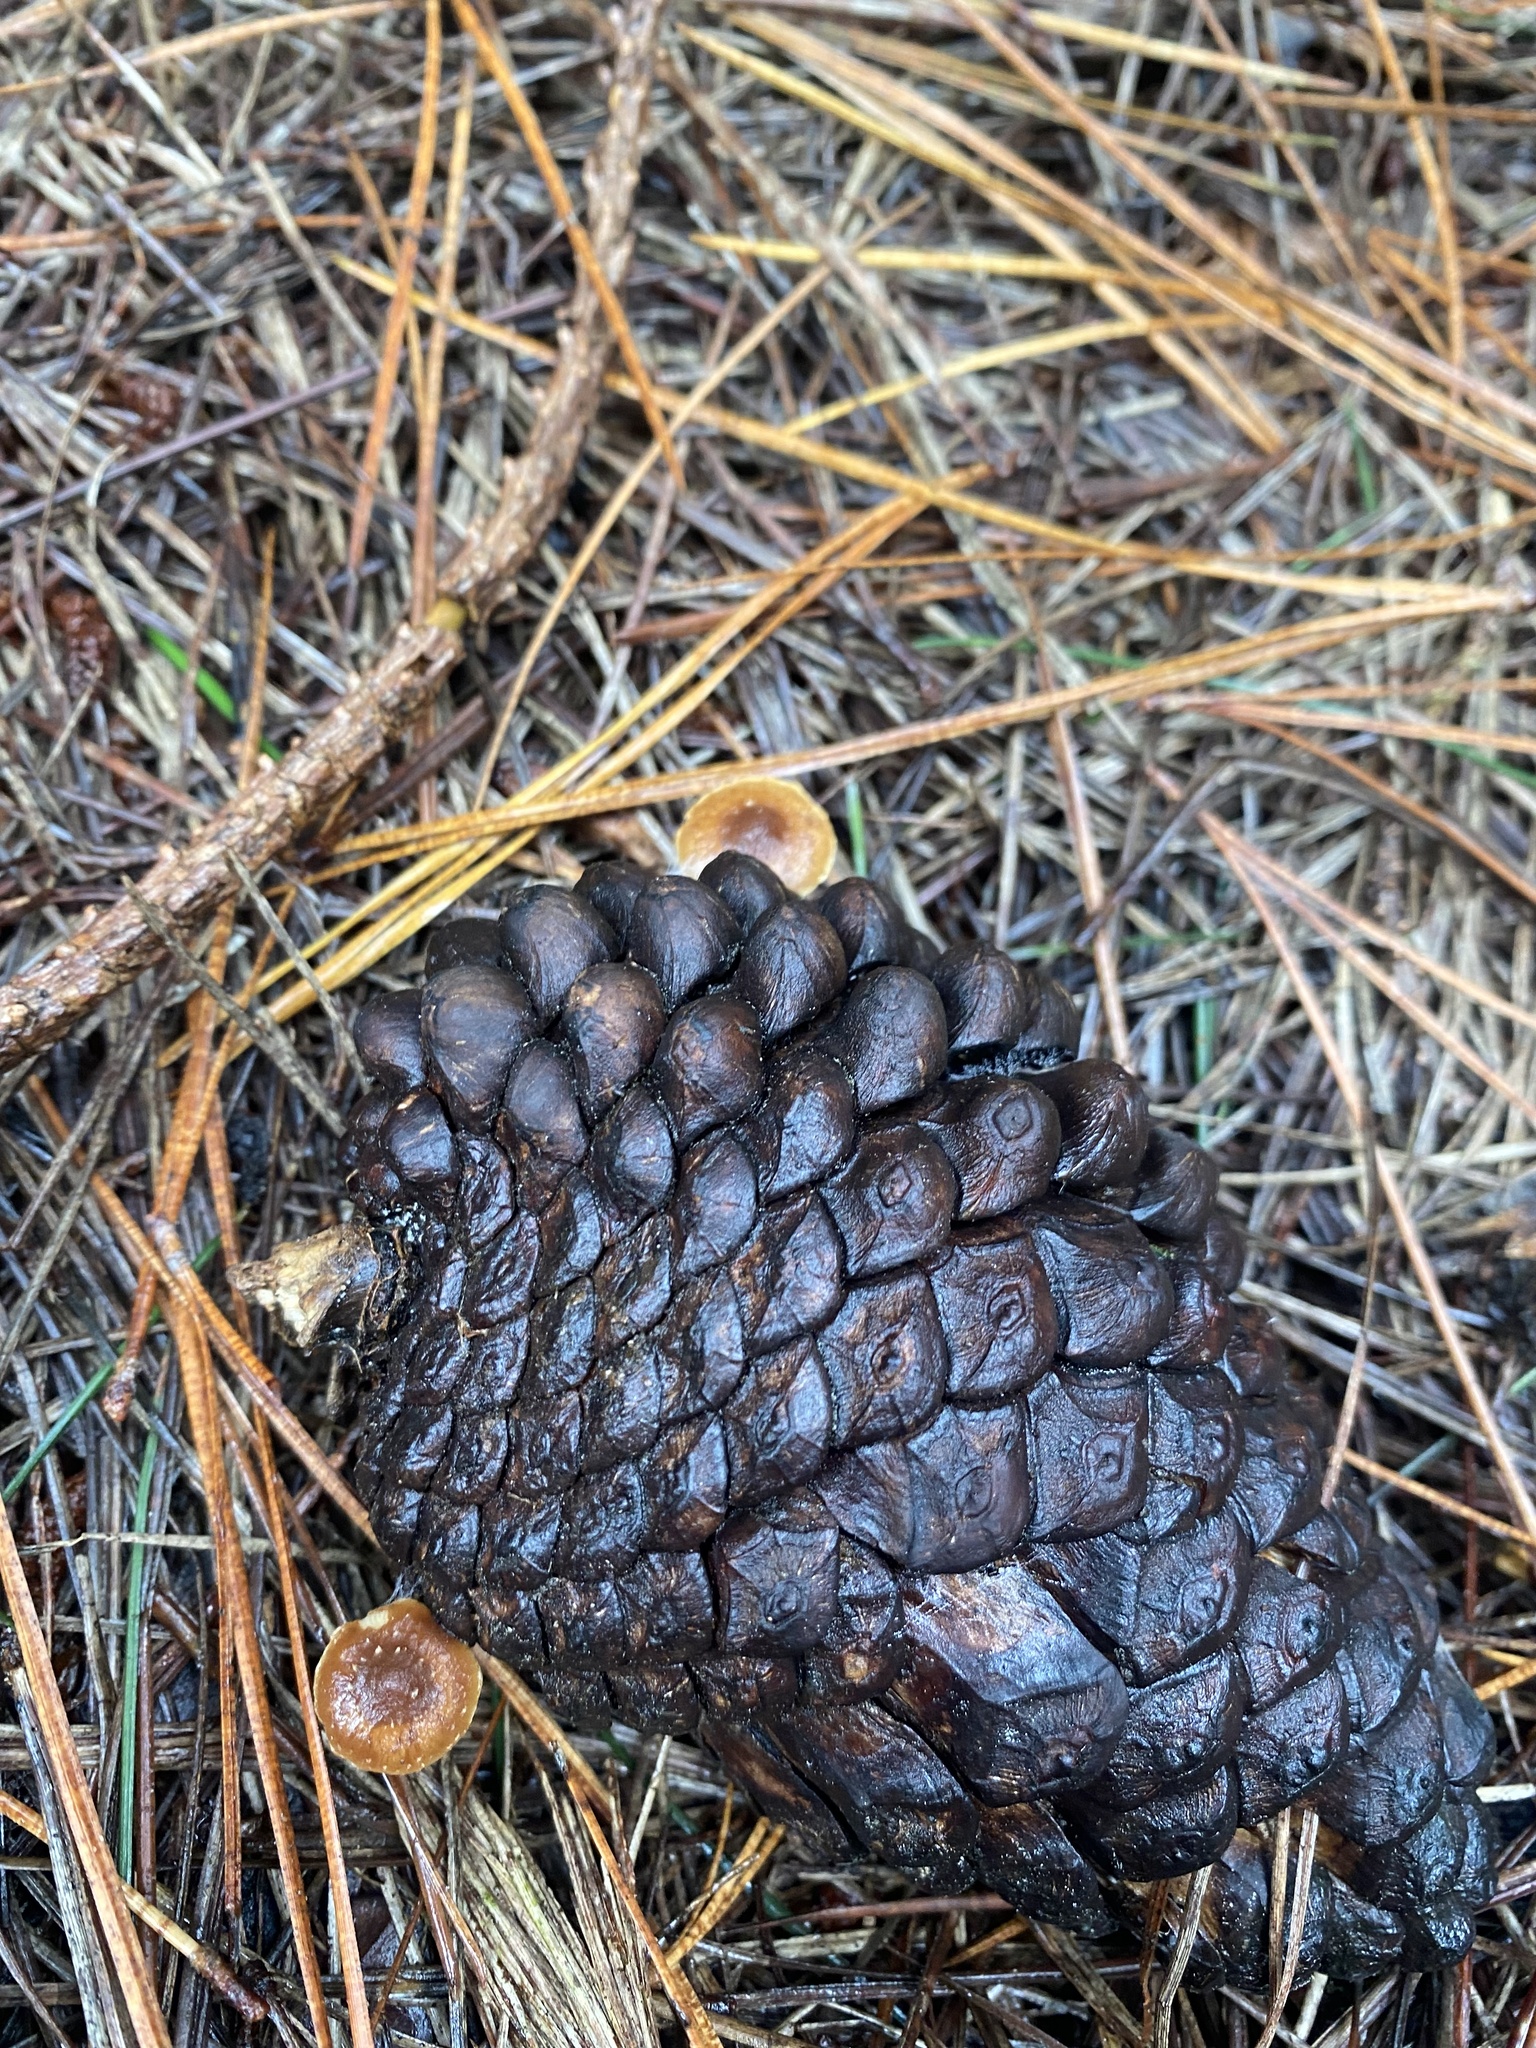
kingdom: Fungi
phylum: Basidiomycota
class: Agaricomycetes
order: Agaricales
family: Strophariaceae
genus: Pholiota
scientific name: Pholiota multicingulata
